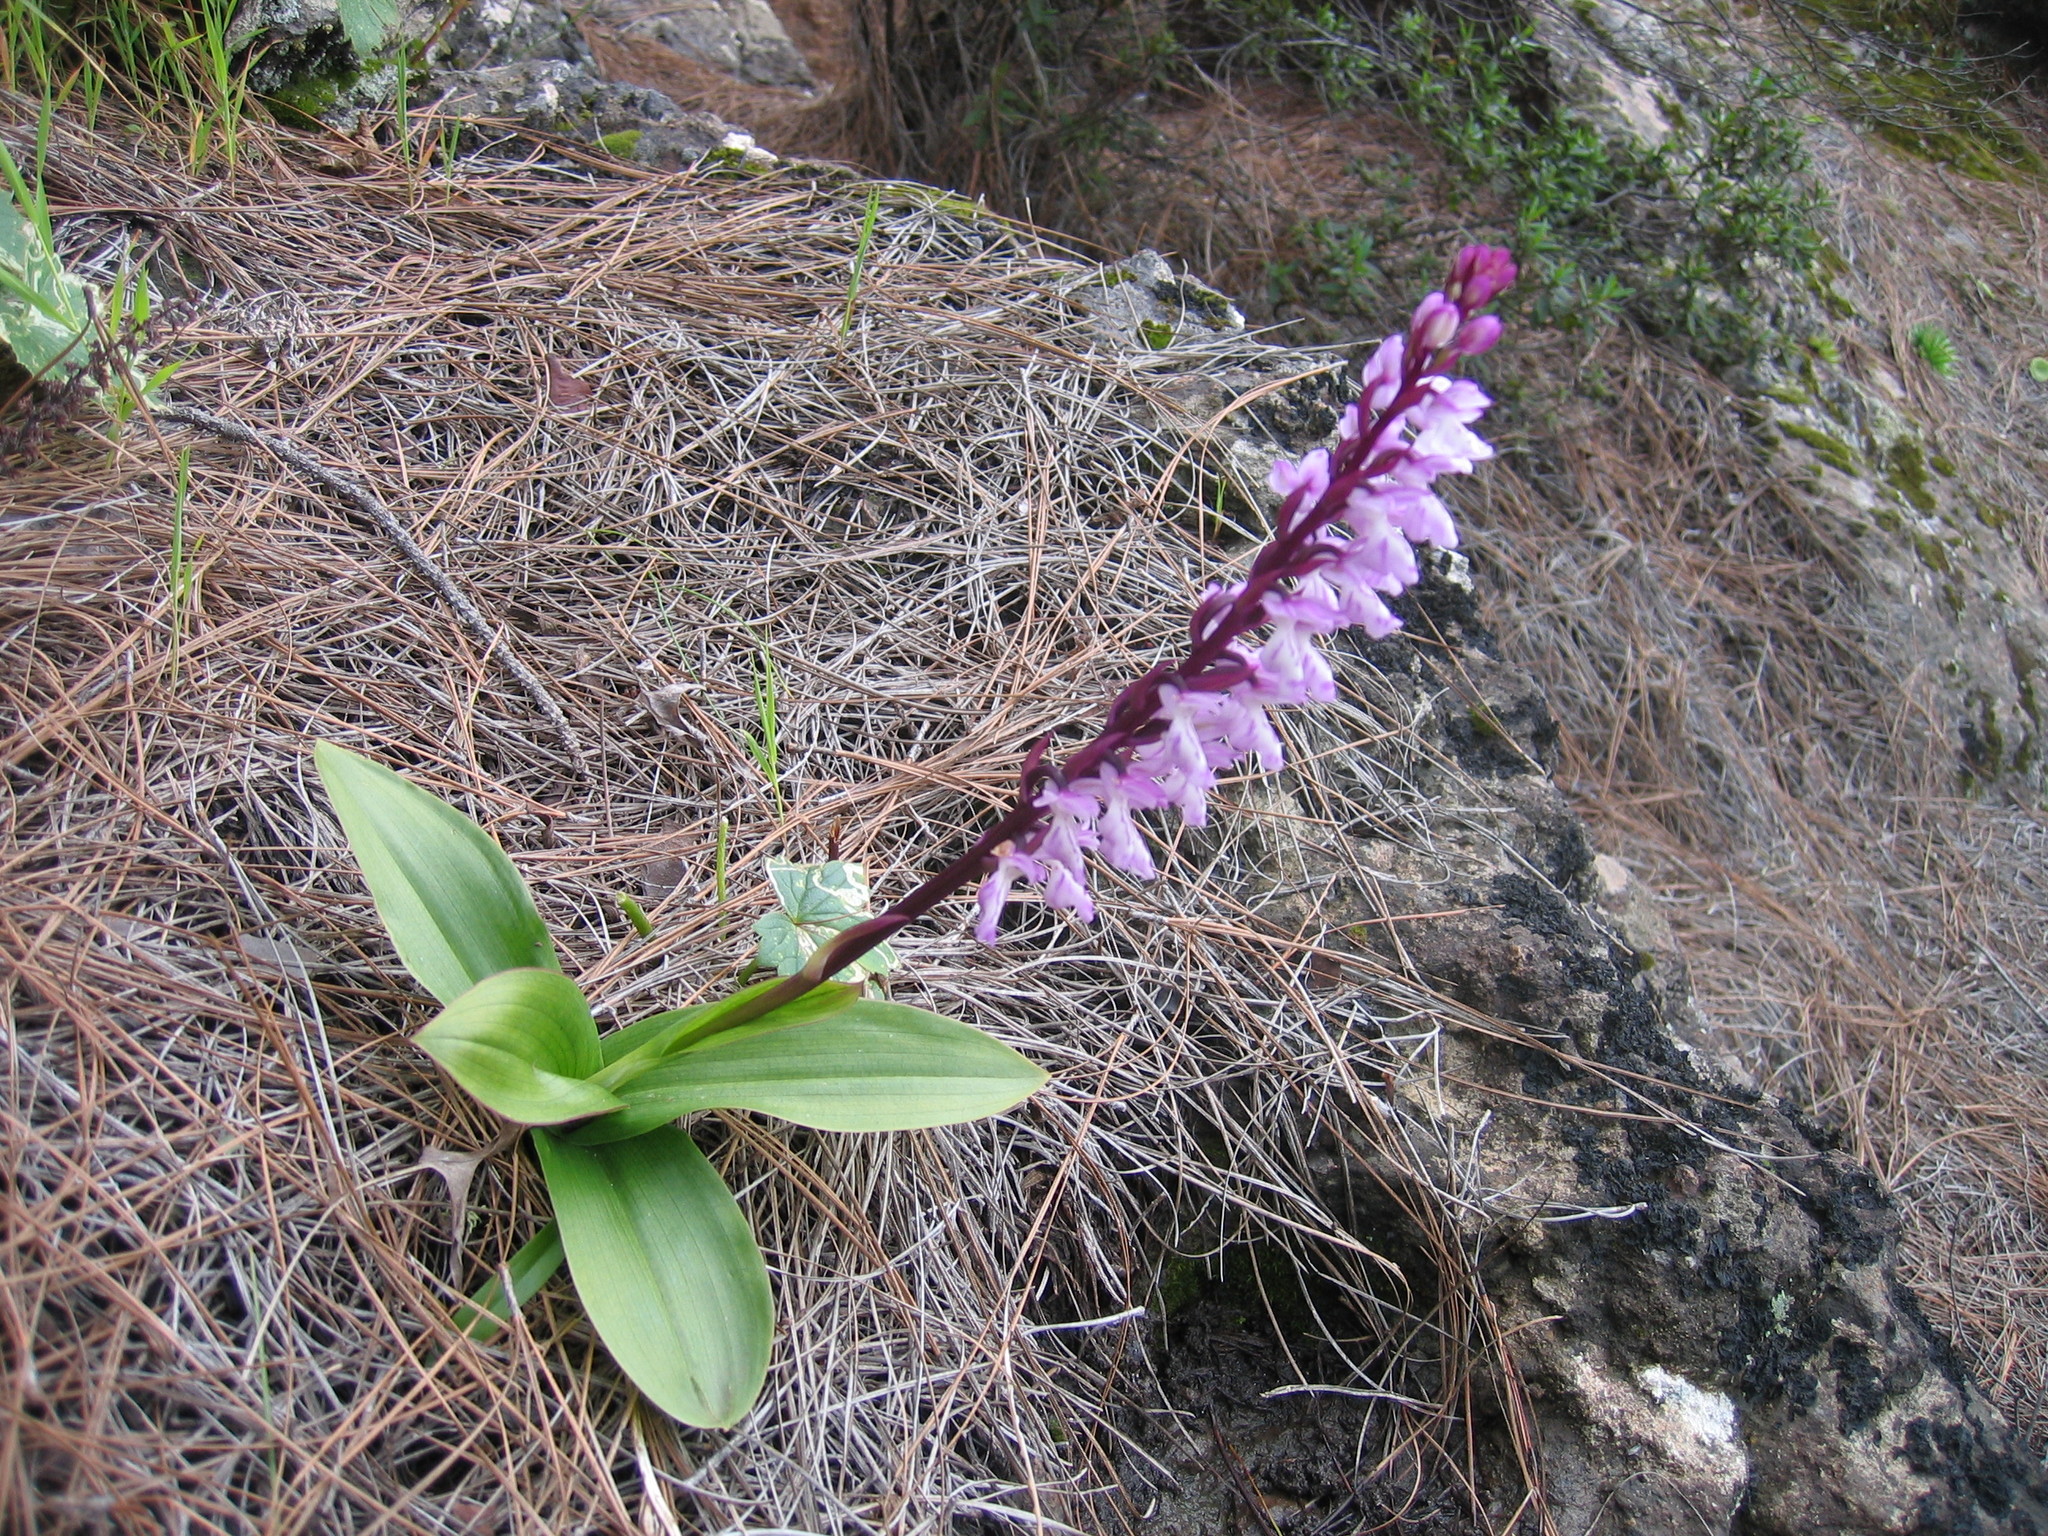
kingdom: Plantae
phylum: Tracheophyta
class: Liliopsida
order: Asparagales
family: Orchidaceae
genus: Orchis
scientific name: Orchis canariensis
